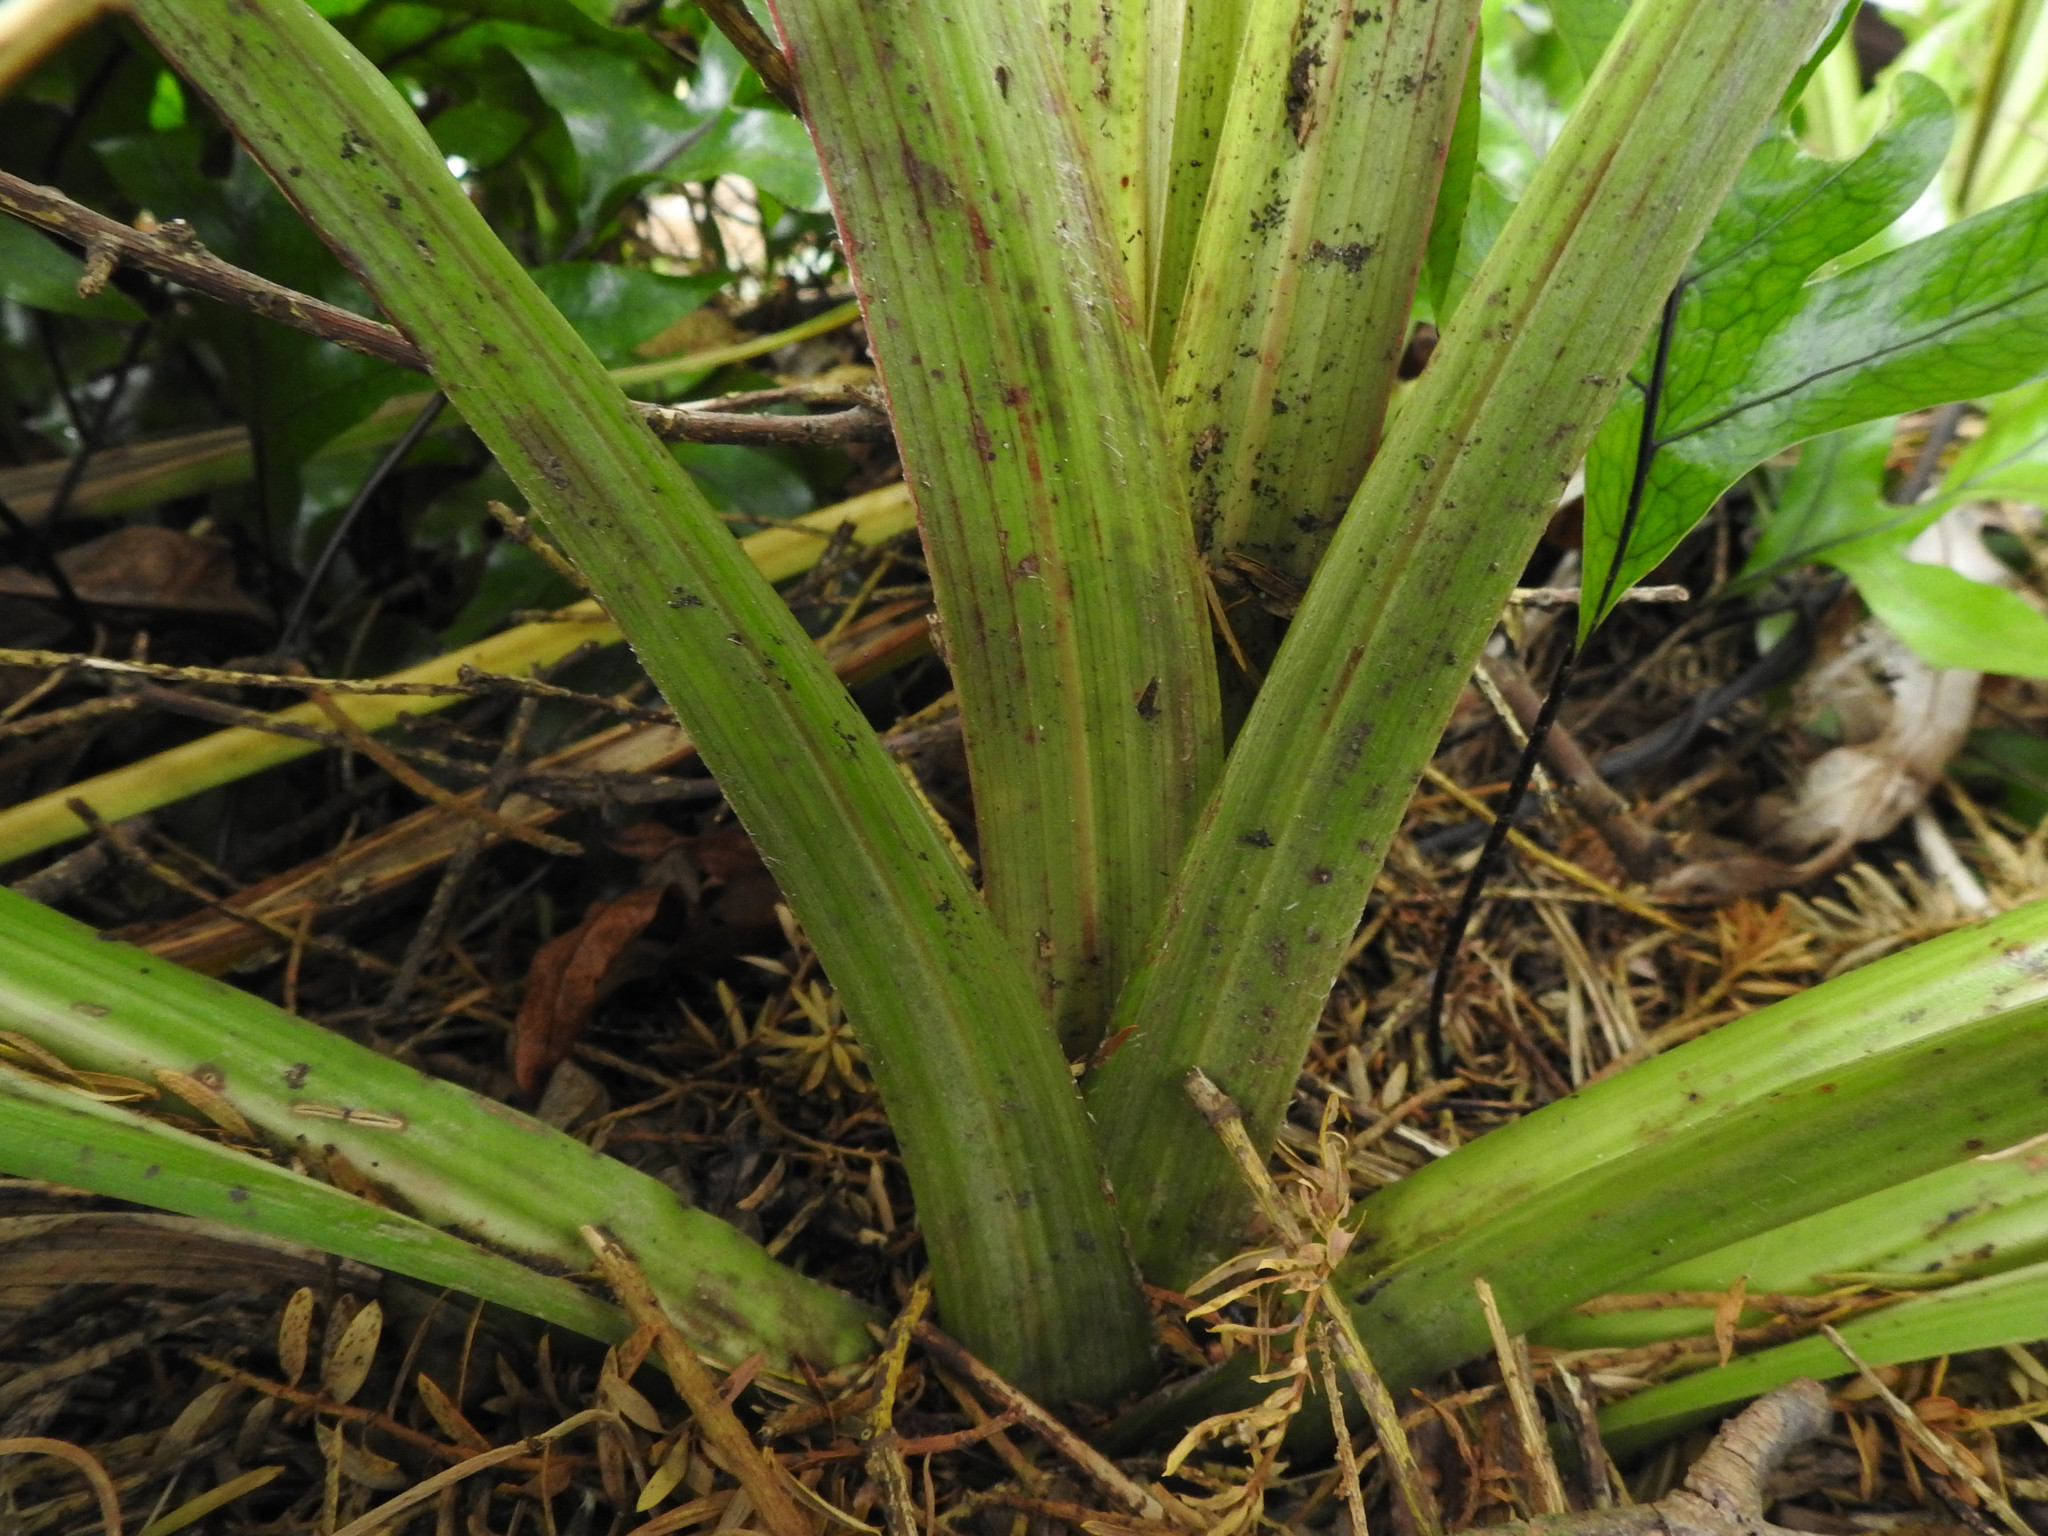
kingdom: Plantae
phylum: Tracheophyta
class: Liliopsida
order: Asparagales
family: Asteliaceae
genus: Astelia
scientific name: Astelia fragrans
